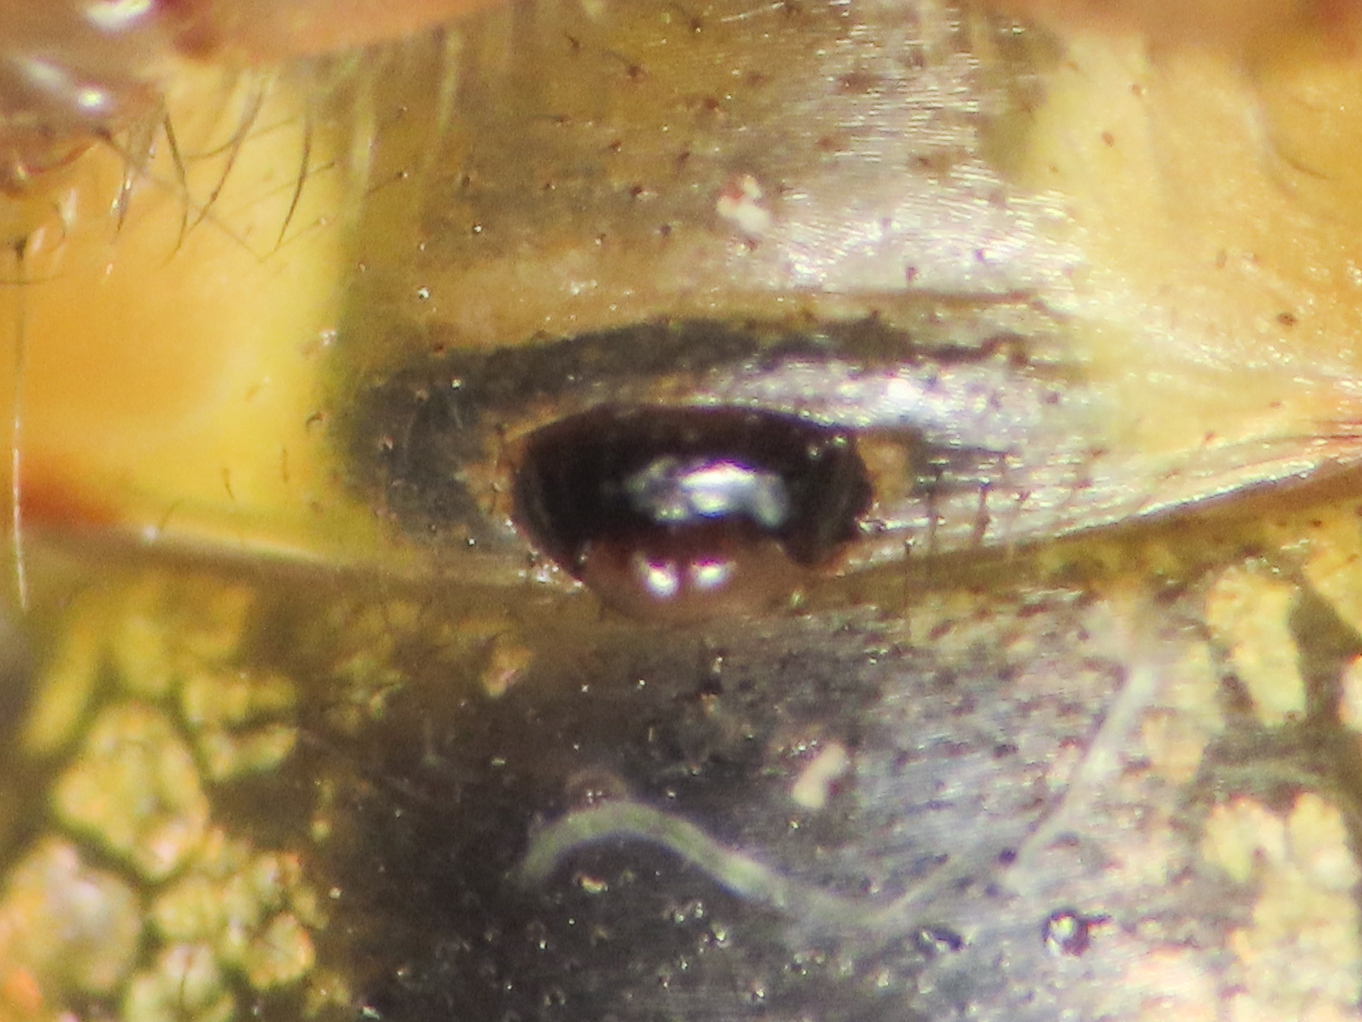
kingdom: Animalia
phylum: Arthropoda
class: Arachnida
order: Araneae
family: Araneidae
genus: Zygiella
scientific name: Zygiella atrica
